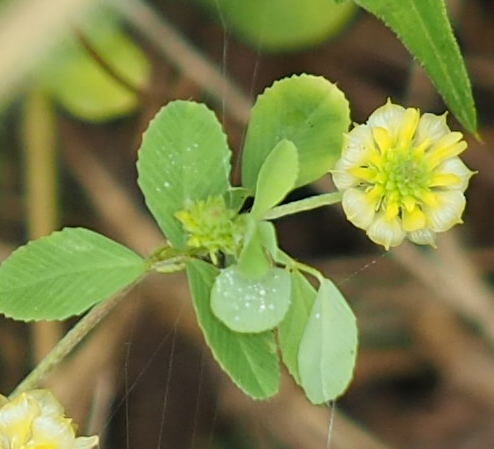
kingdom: Plantae
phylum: Tracheophyta
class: Magnoliopsida
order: Fabales
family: Fabaceae
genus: Trifolium
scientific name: Trifolium campestre
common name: Field clover
